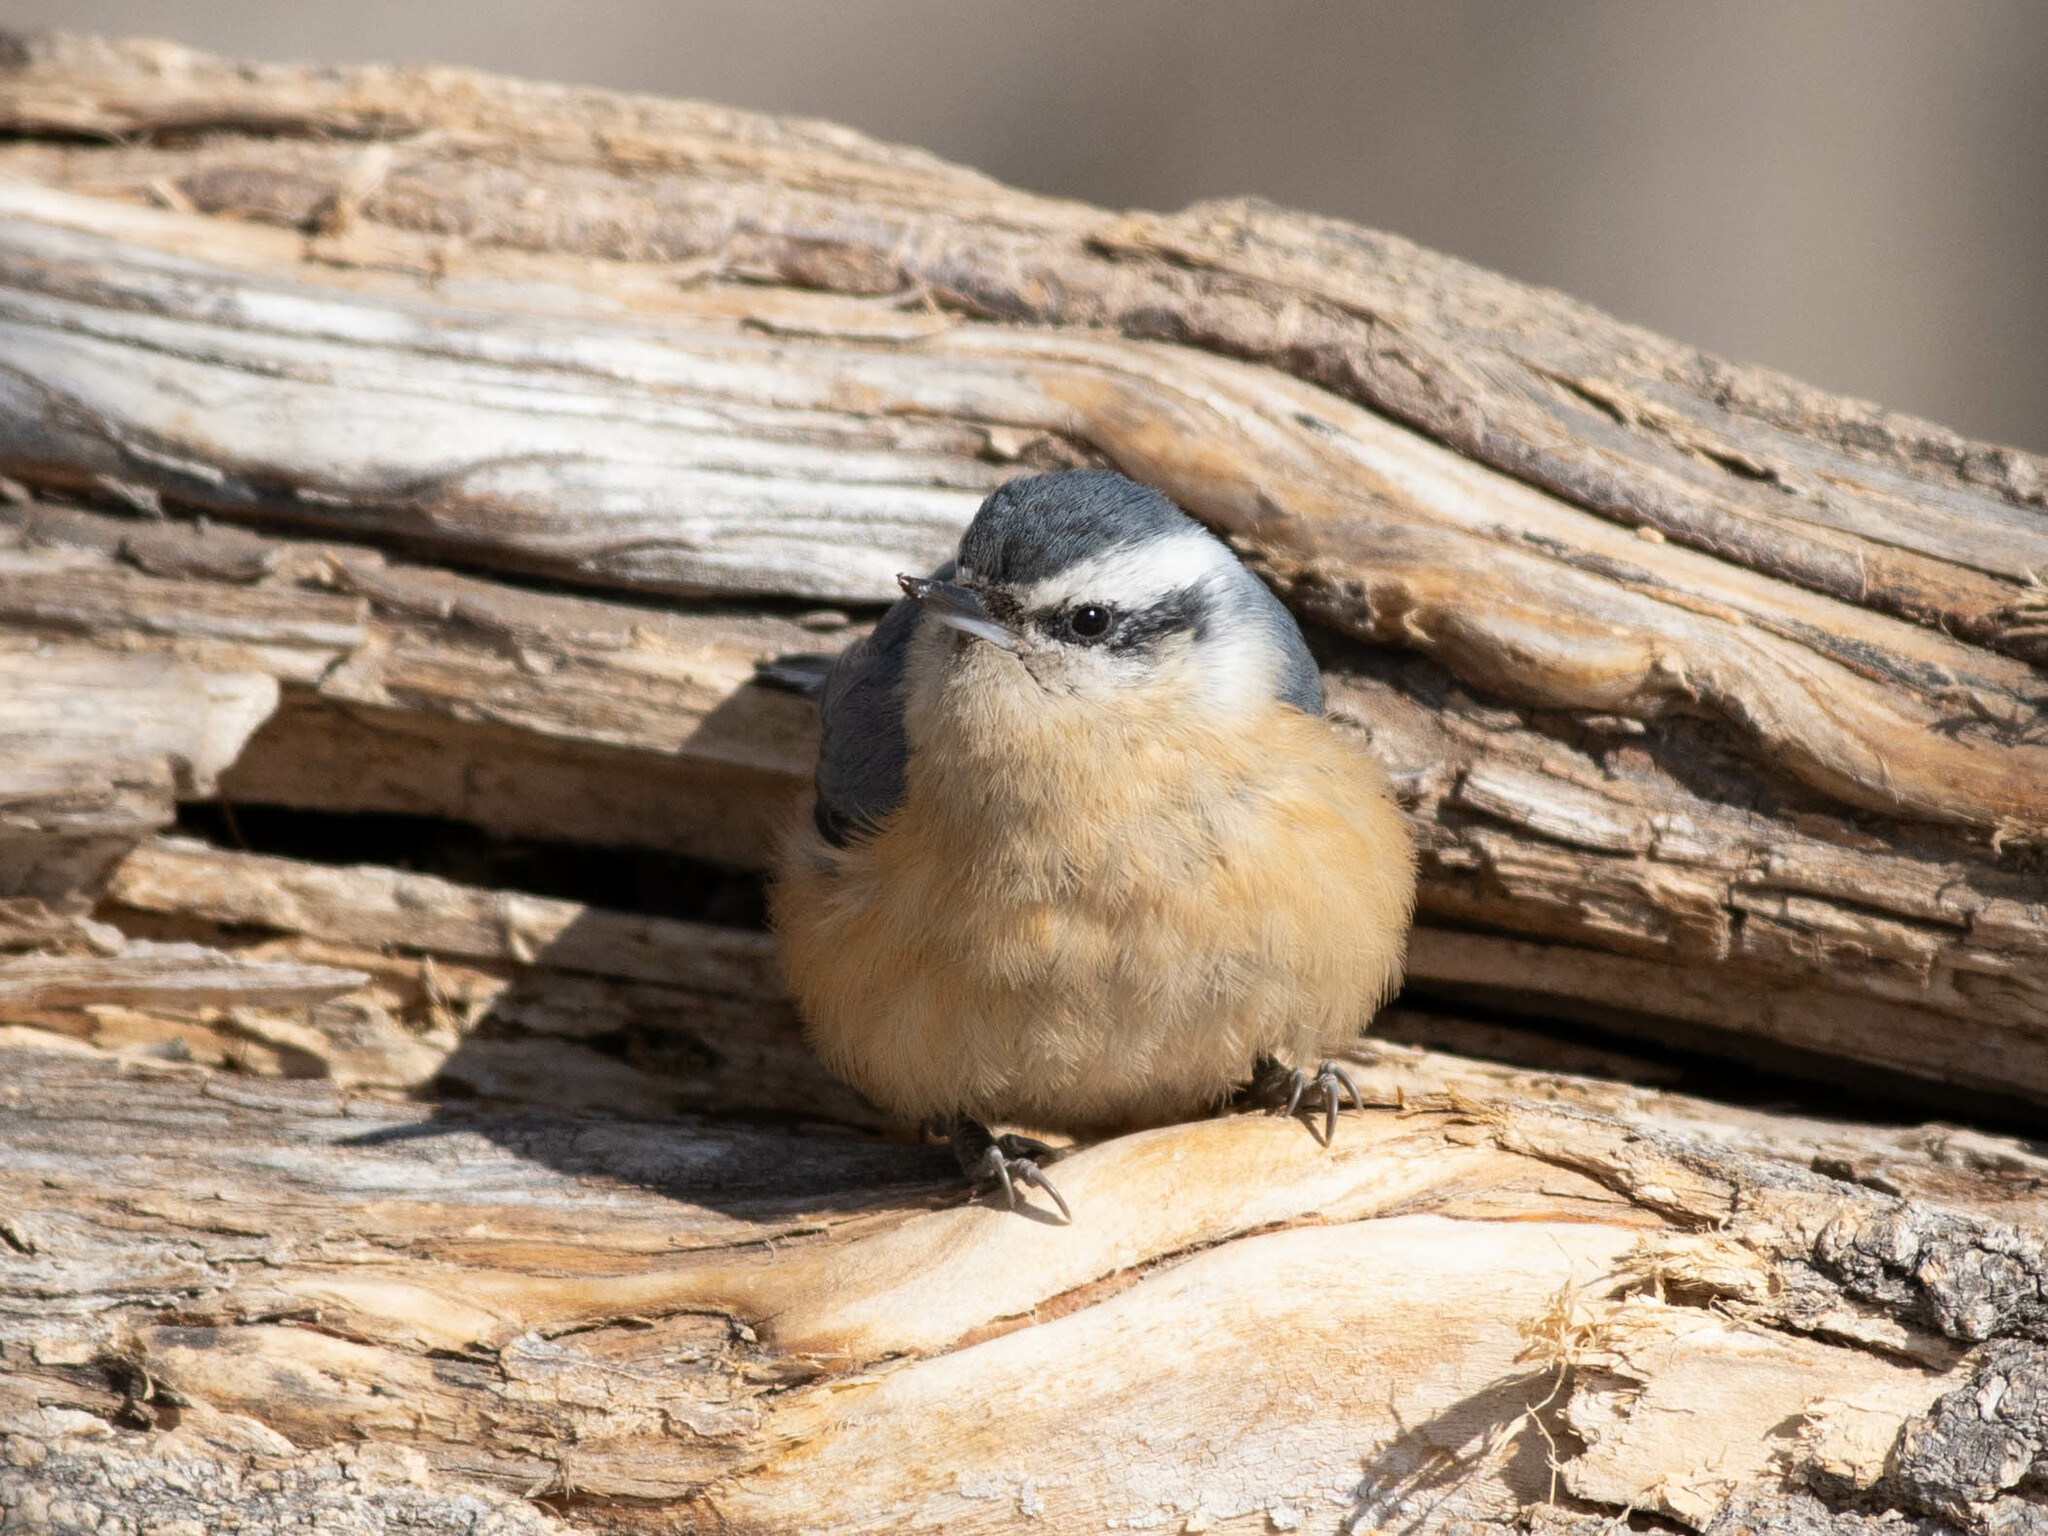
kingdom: Animalia
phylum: Chordata
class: Aves
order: Passeriformes
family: Sittidae
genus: Sitta
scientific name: Sitta canadensis
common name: Red-breasted nuthatch
